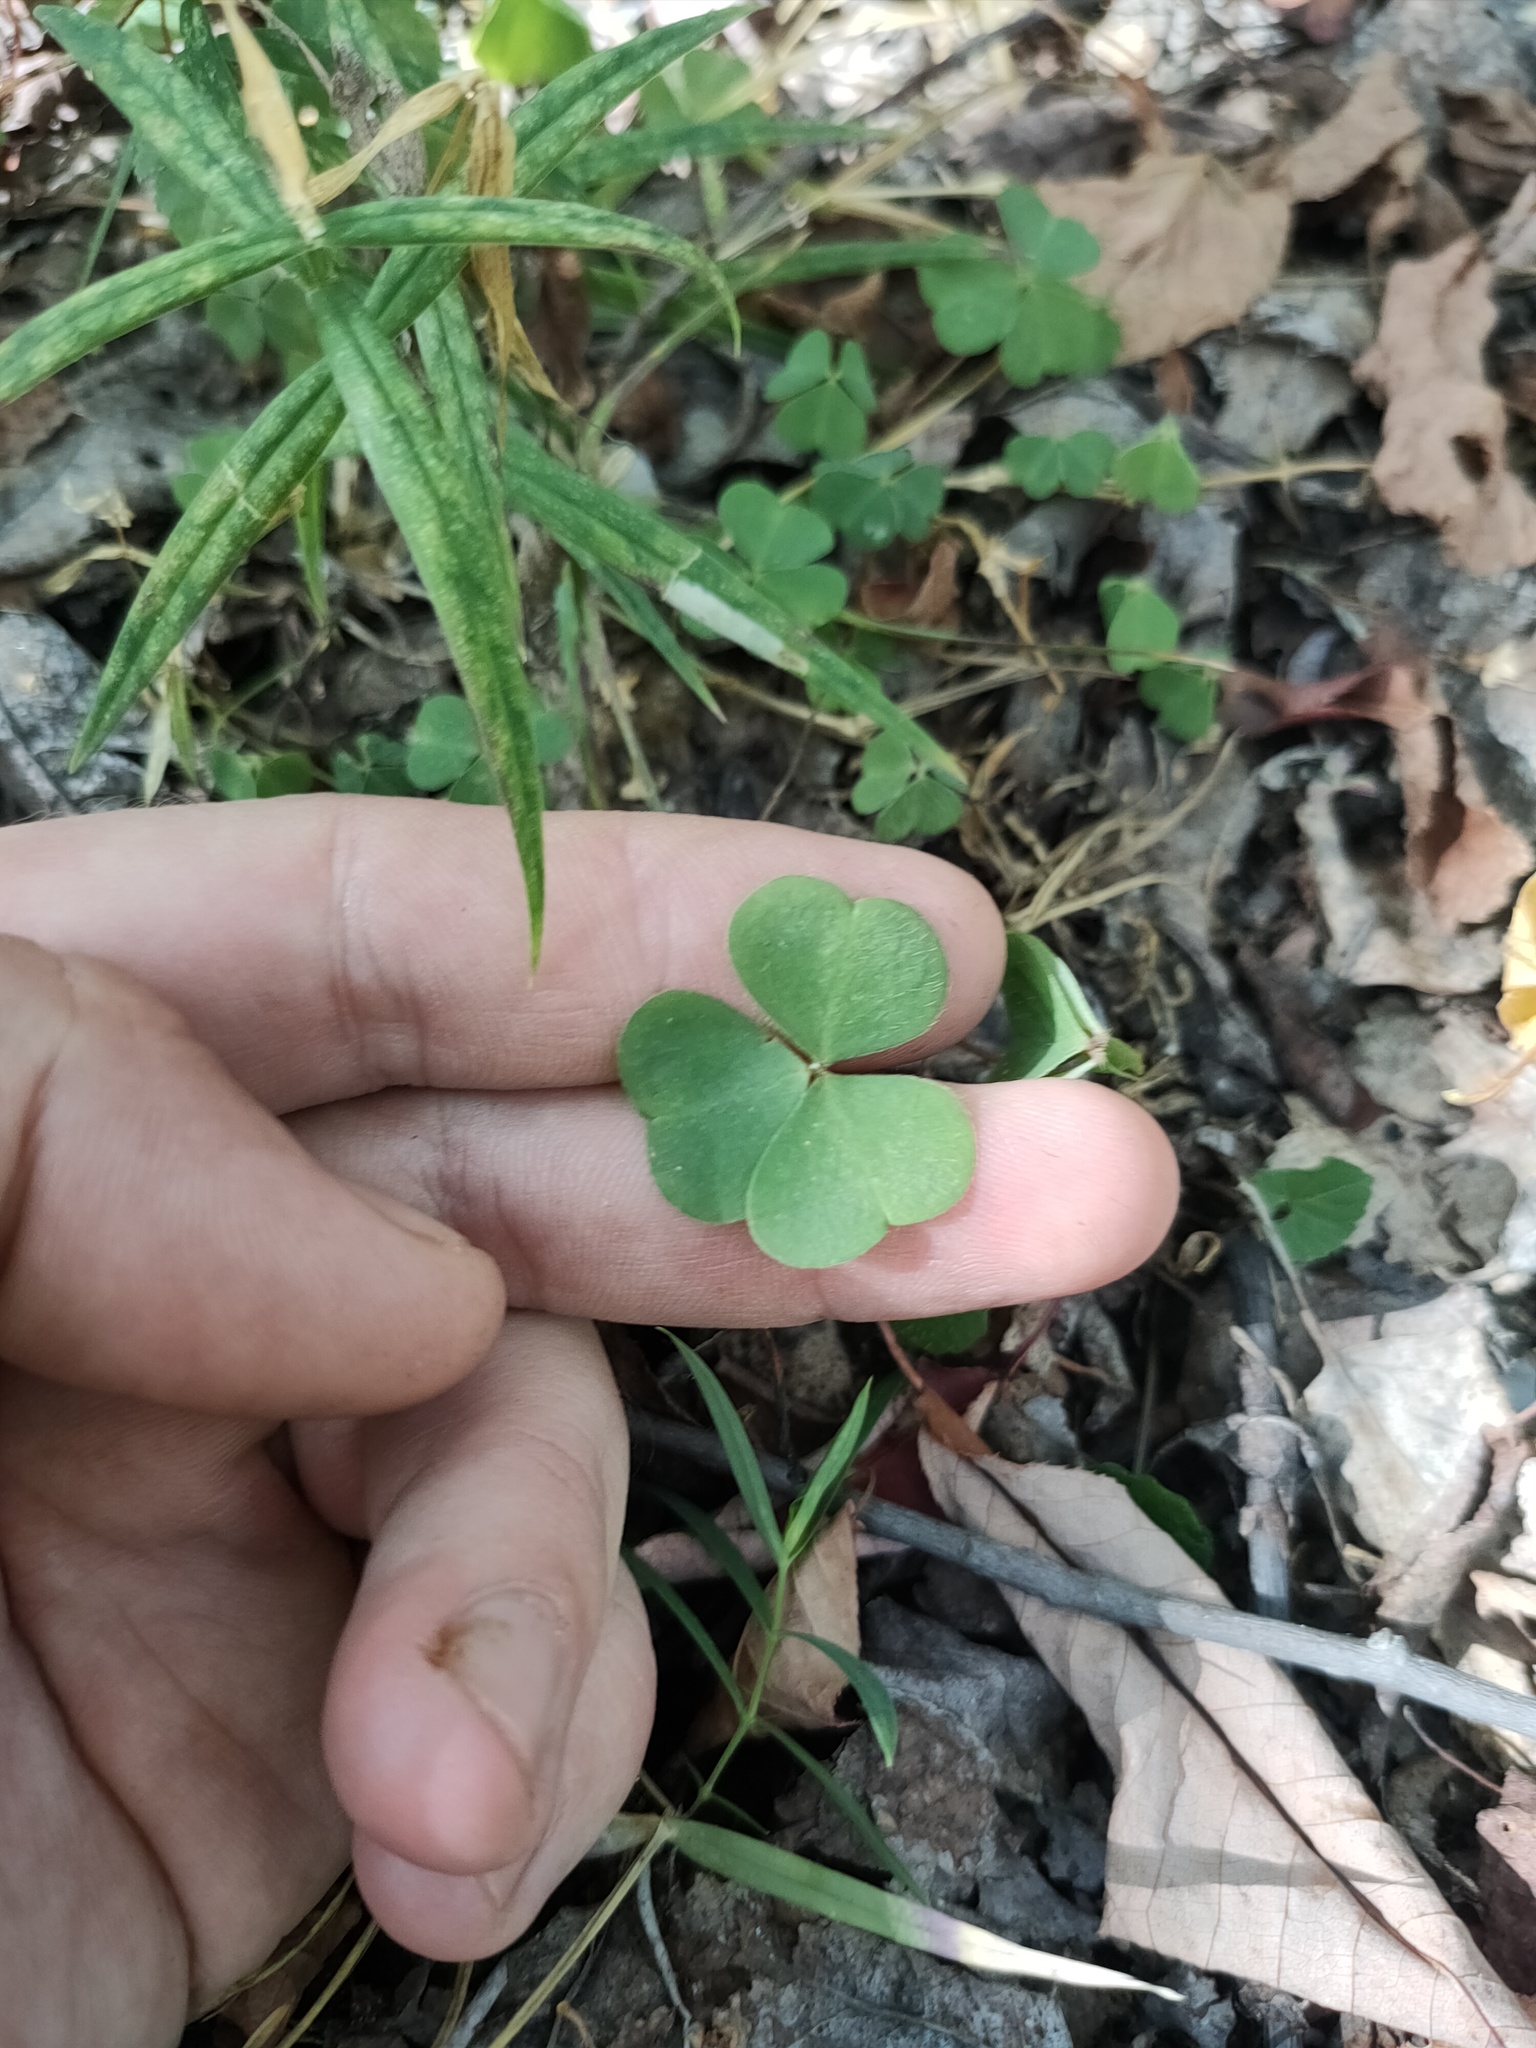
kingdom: Plantae
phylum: Tracheophyta
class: Magnoliopsida
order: Oxalidales
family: Oxalidaceae
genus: Oxalis
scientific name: Oxalis acetosella
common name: Wood-sorrel
